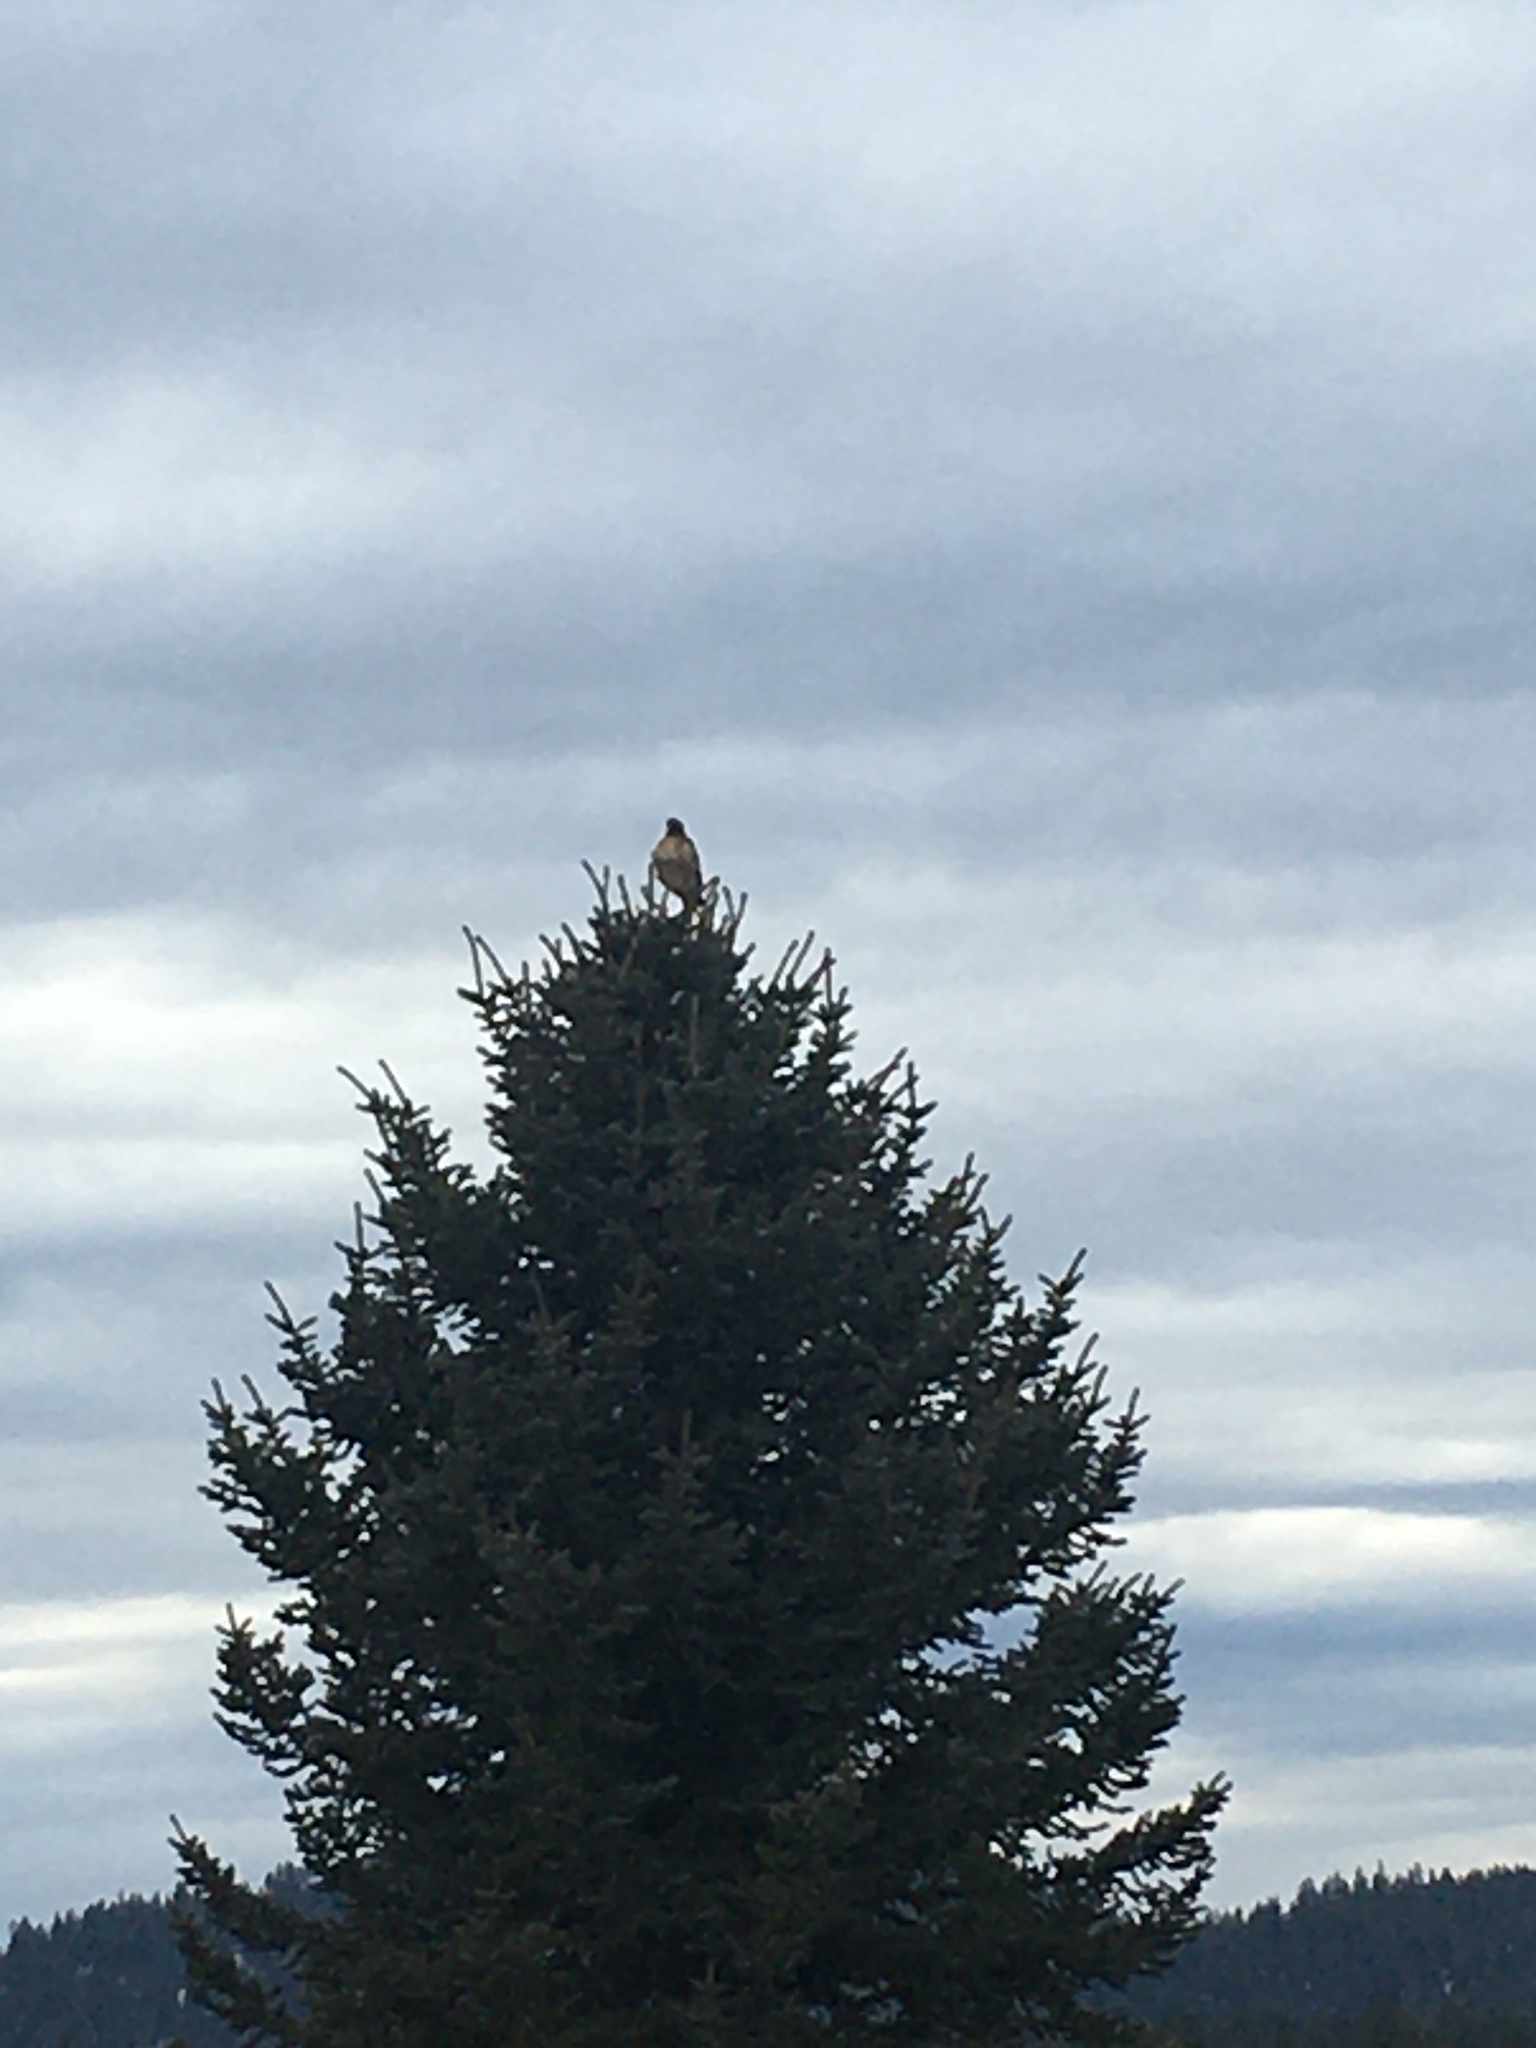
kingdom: Animalia
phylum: Chordata
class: Aves
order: Accipitriformes
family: Accipitridae
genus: Buteo
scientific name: Buteo jamaicensis
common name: Red-tailed hawk
